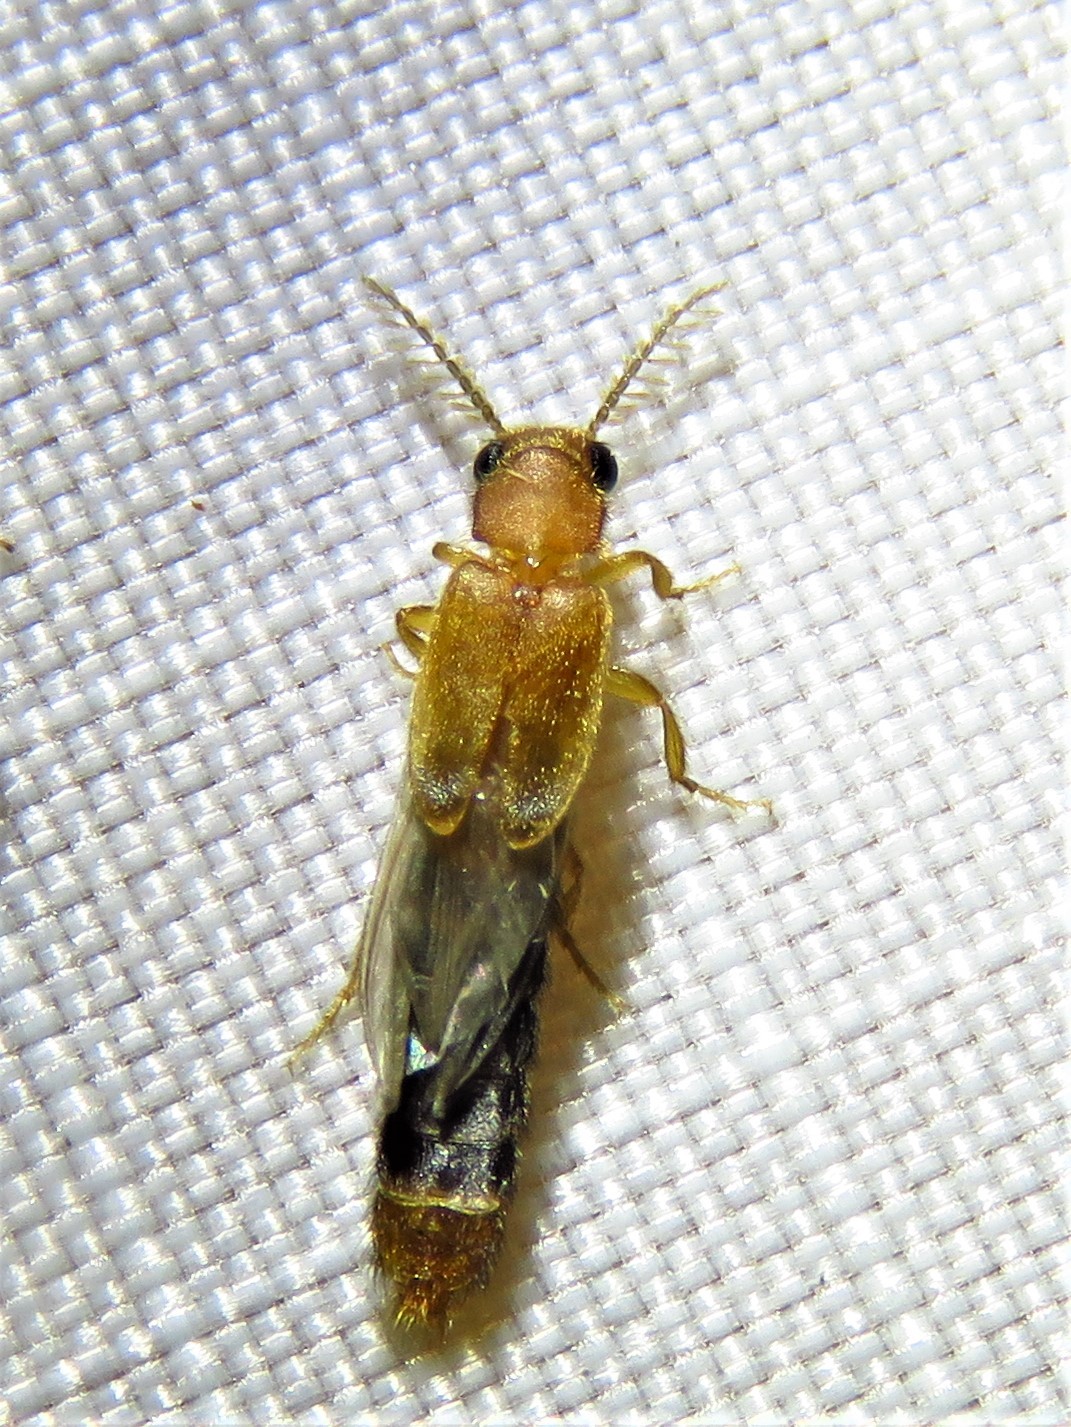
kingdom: Animalia
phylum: Arthropoda
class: Insecta
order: Coleoptera
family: Phengodidae
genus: Distremocephalus
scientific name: Distremocephalus texanus
